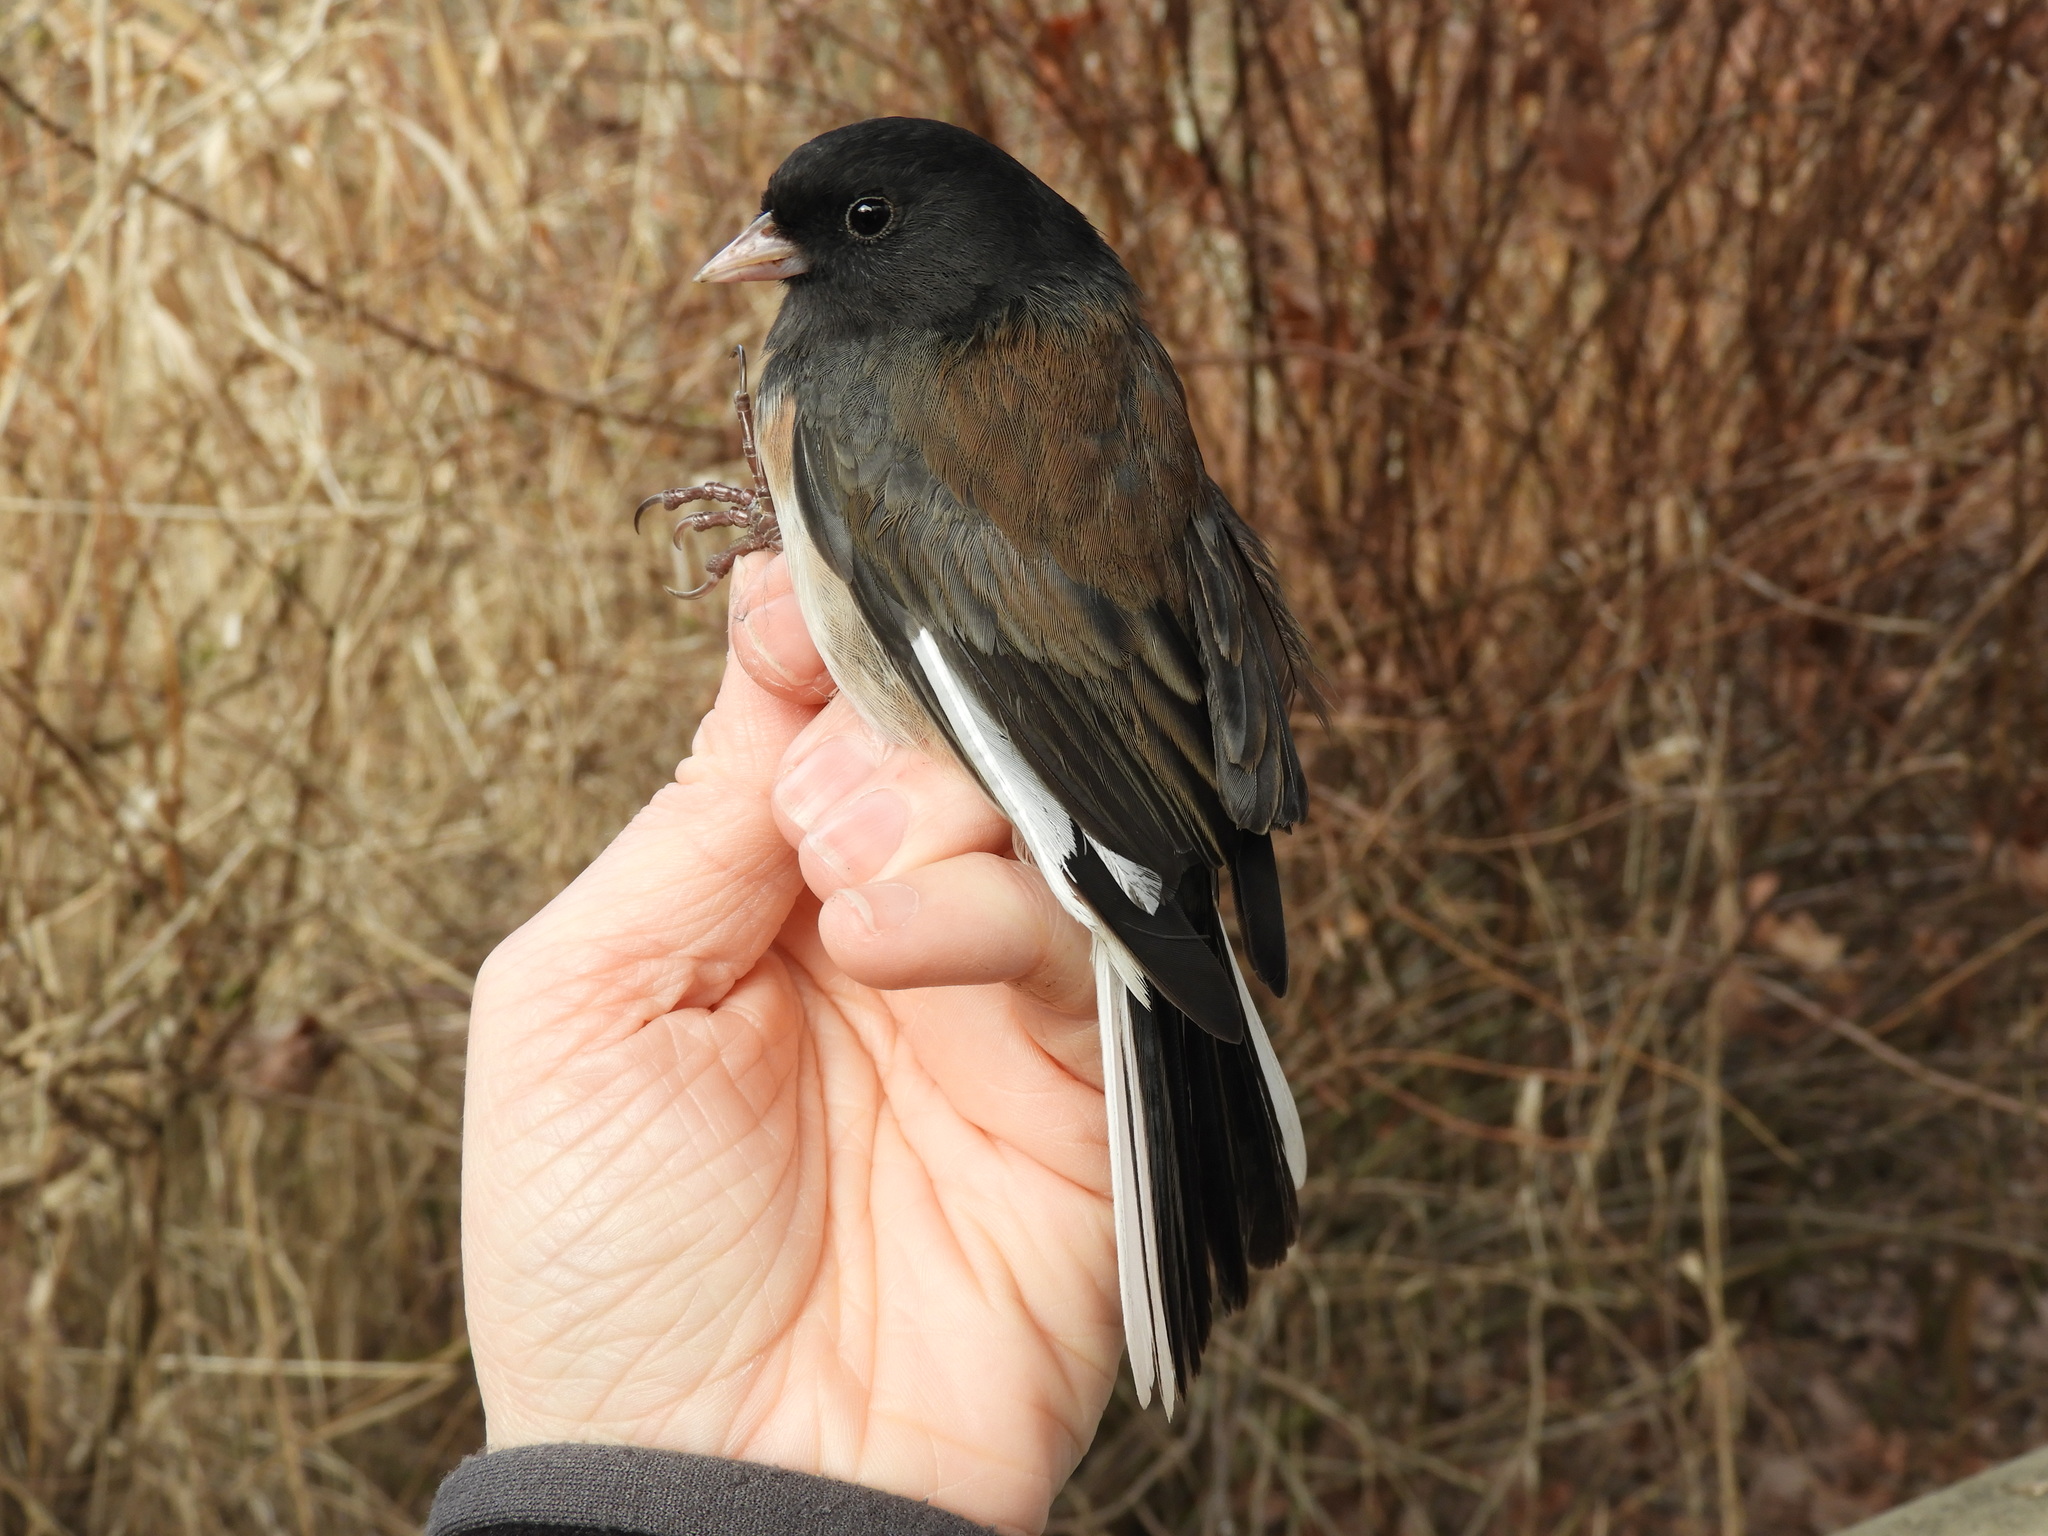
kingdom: Animalia
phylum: Chordata
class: Aves
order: Passeriformes
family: Passerellidae
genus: Junco
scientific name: Junco hyemalis
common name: Dark-eyed junco
